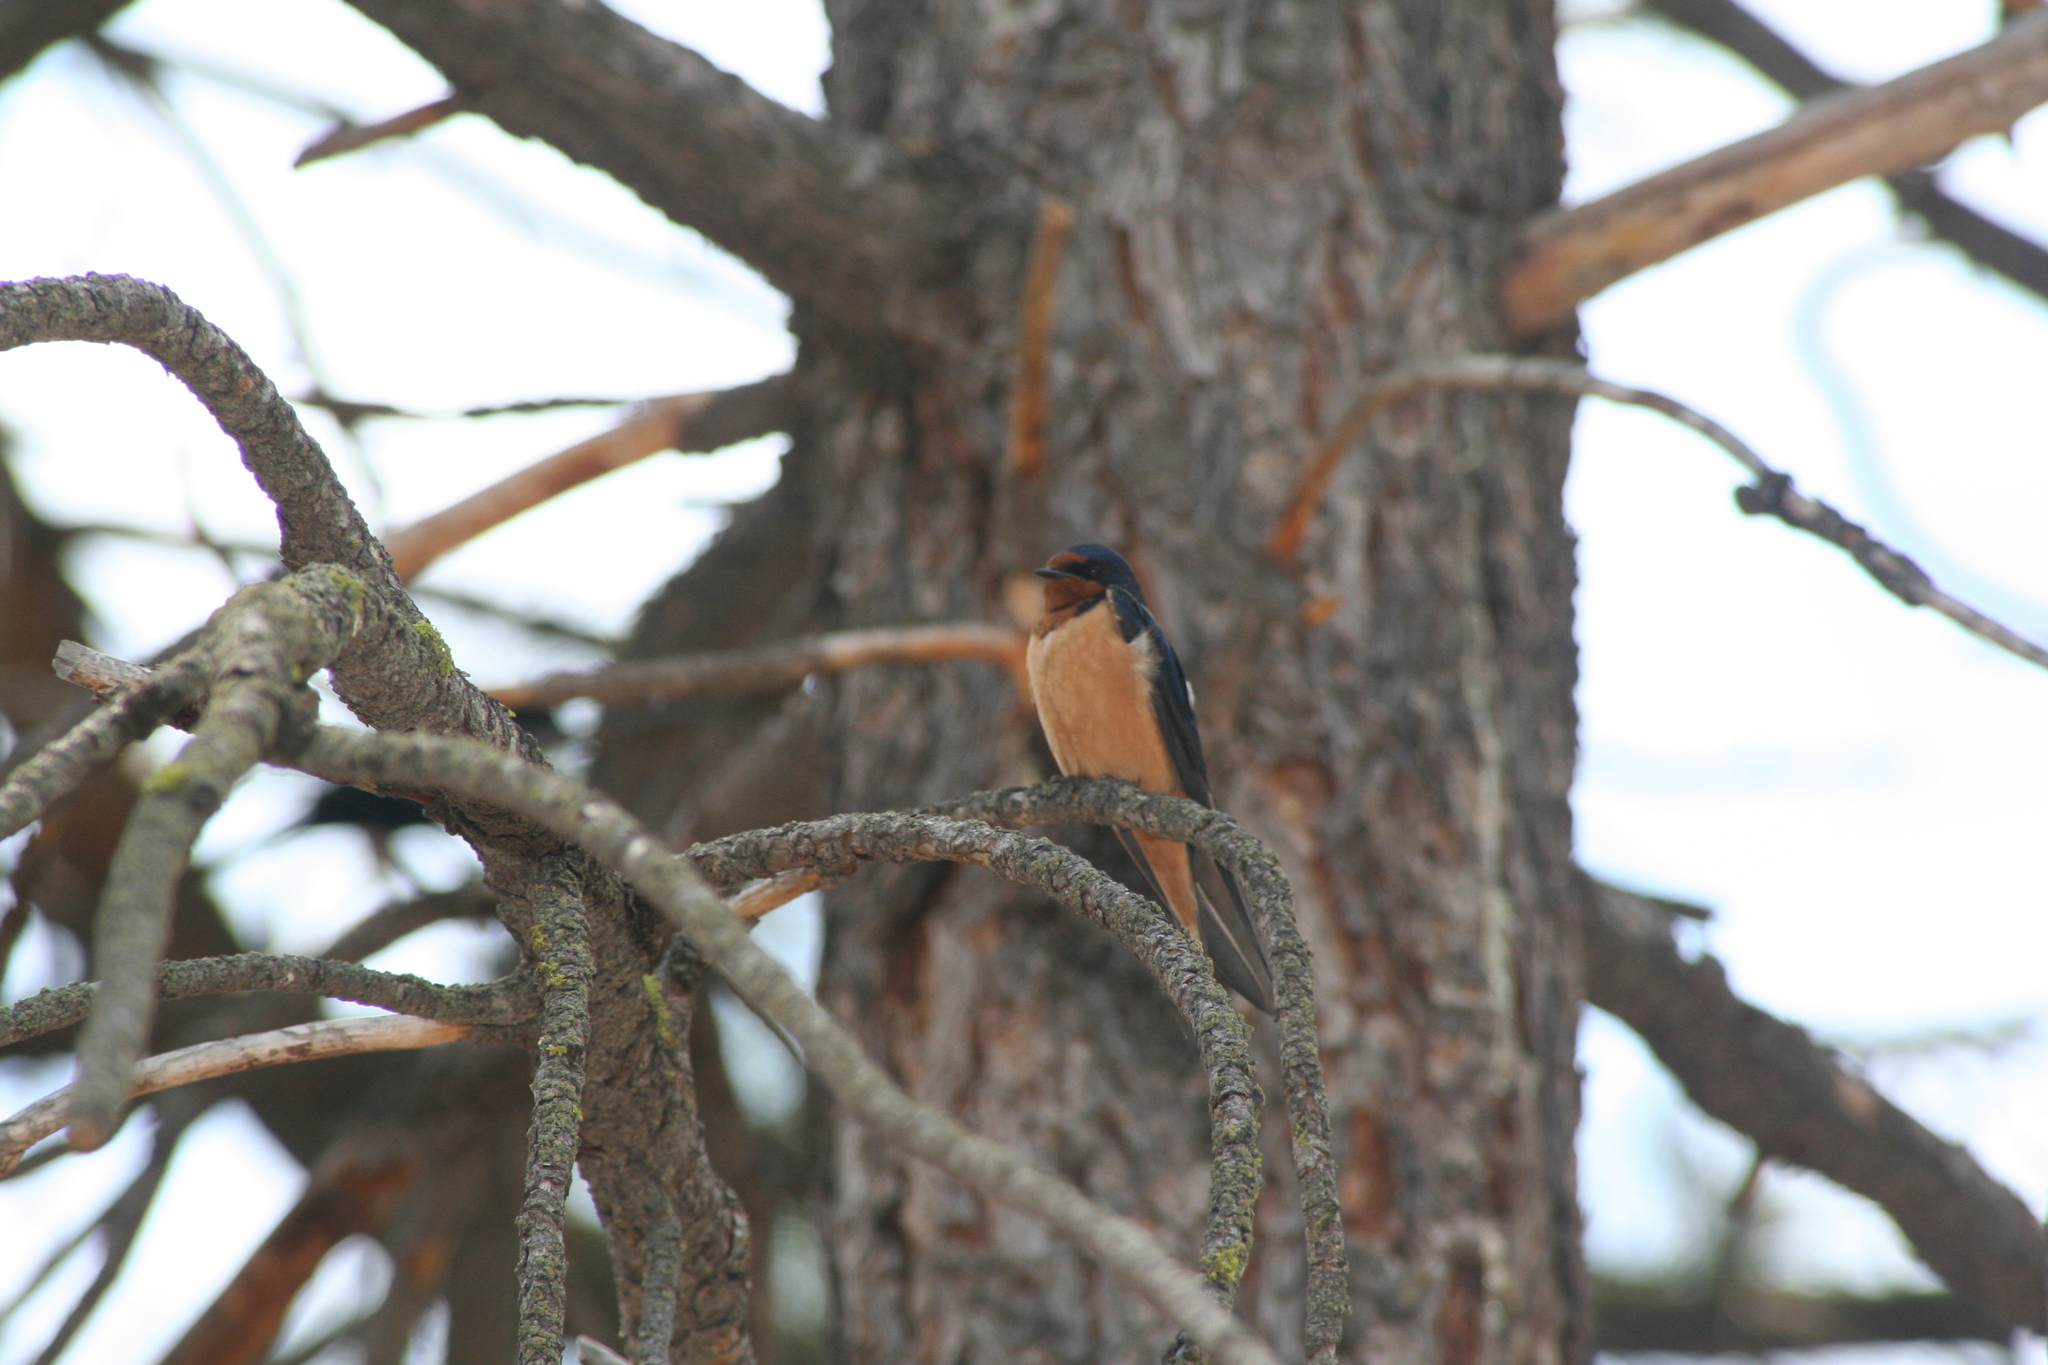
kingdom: Animalia
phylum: Chordata
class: Aves
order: Passeriformes
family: Hirundinidae
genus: Hirundo
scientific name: Hirundo rustica
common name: Barn swallow
